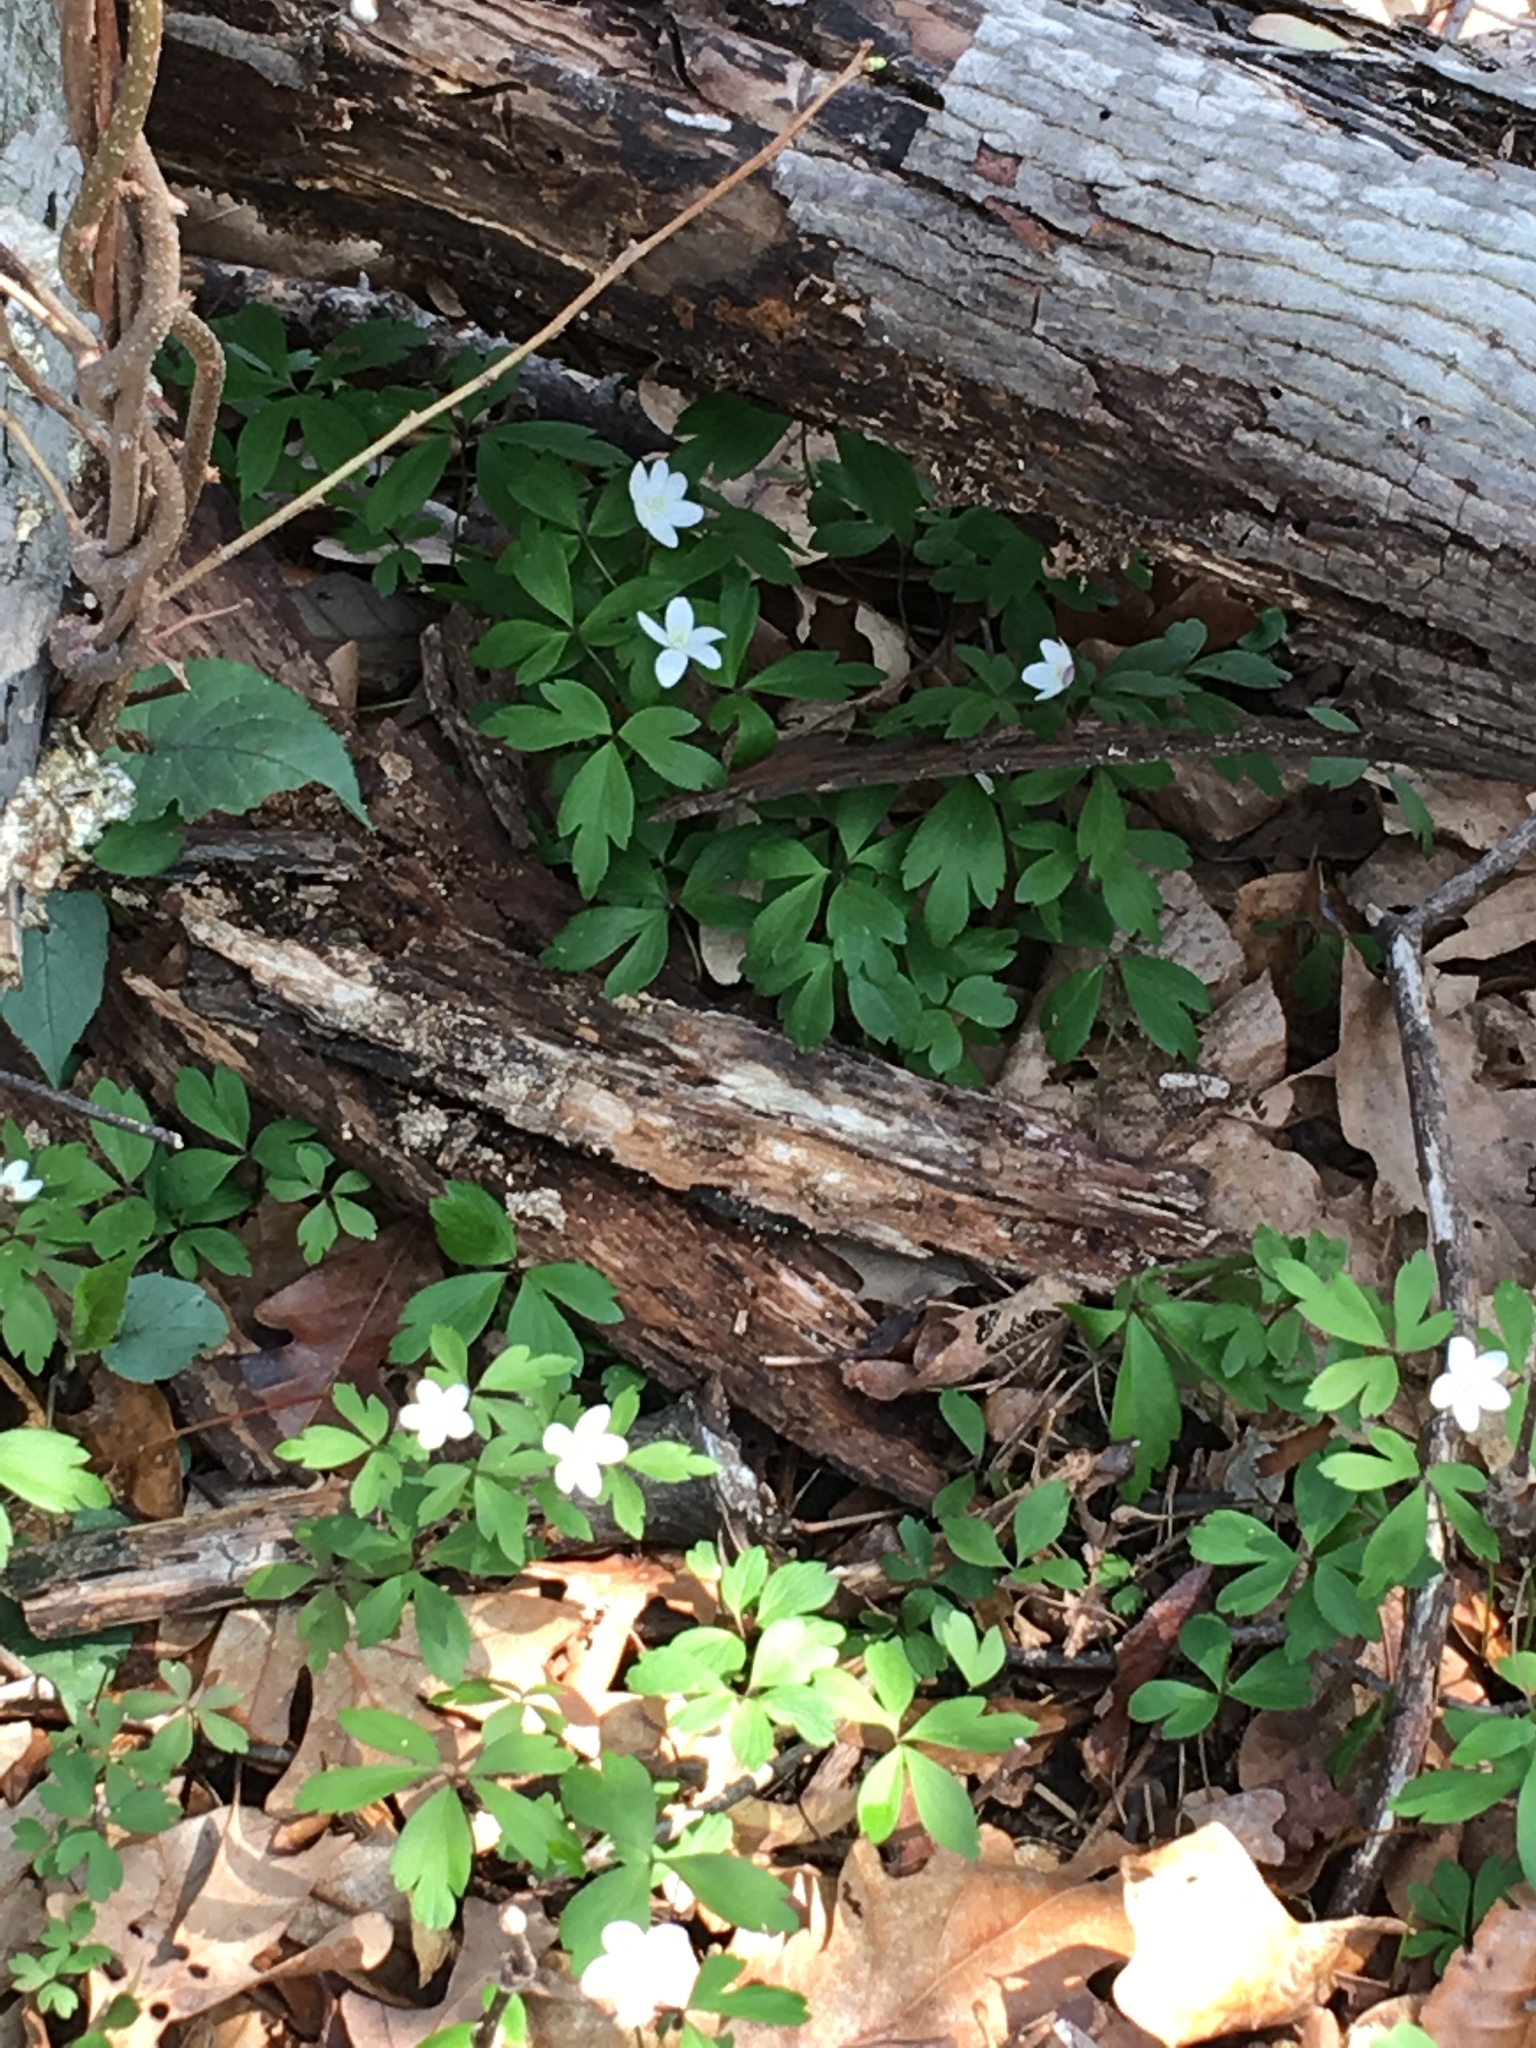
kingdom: Plantae
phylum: Tracheophyta
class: Magnoliopsida
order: Ranunculales
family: Ranunculaceae
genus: Anemone
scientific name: Anemone quinquefolia
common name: Wood anemone
